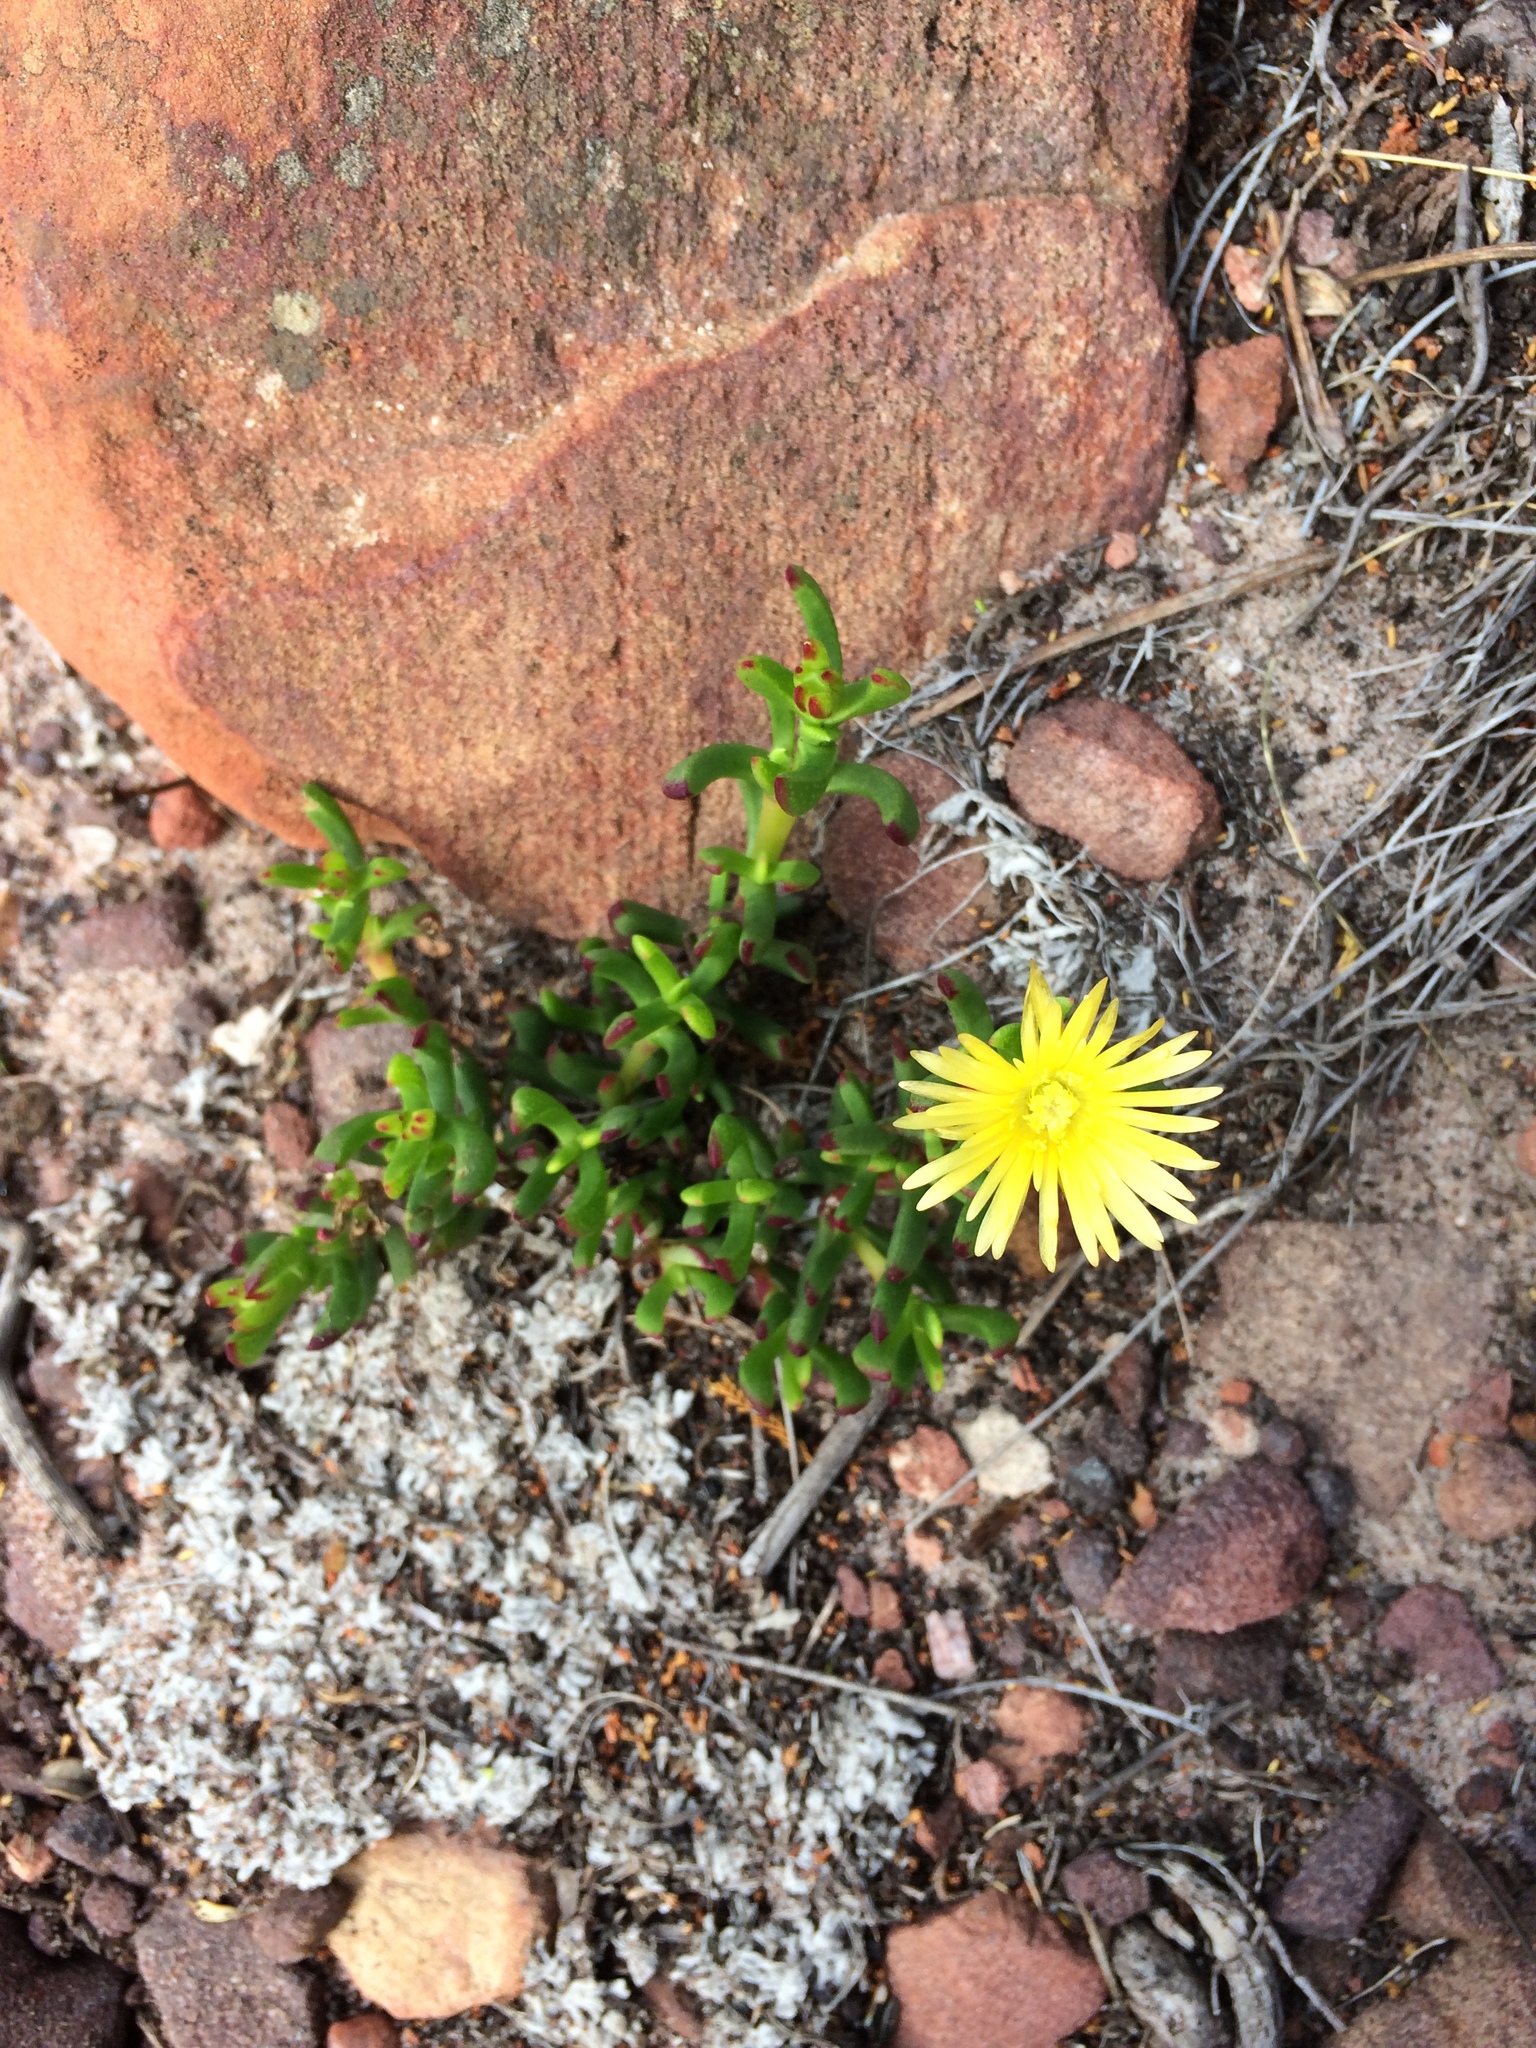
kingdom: Plantae
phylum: Tracheophyta
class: Magnoliopsida
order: Caryophyllales
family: Aizoaceae
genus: Lampranthus
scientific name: Lampranthus promontorii
